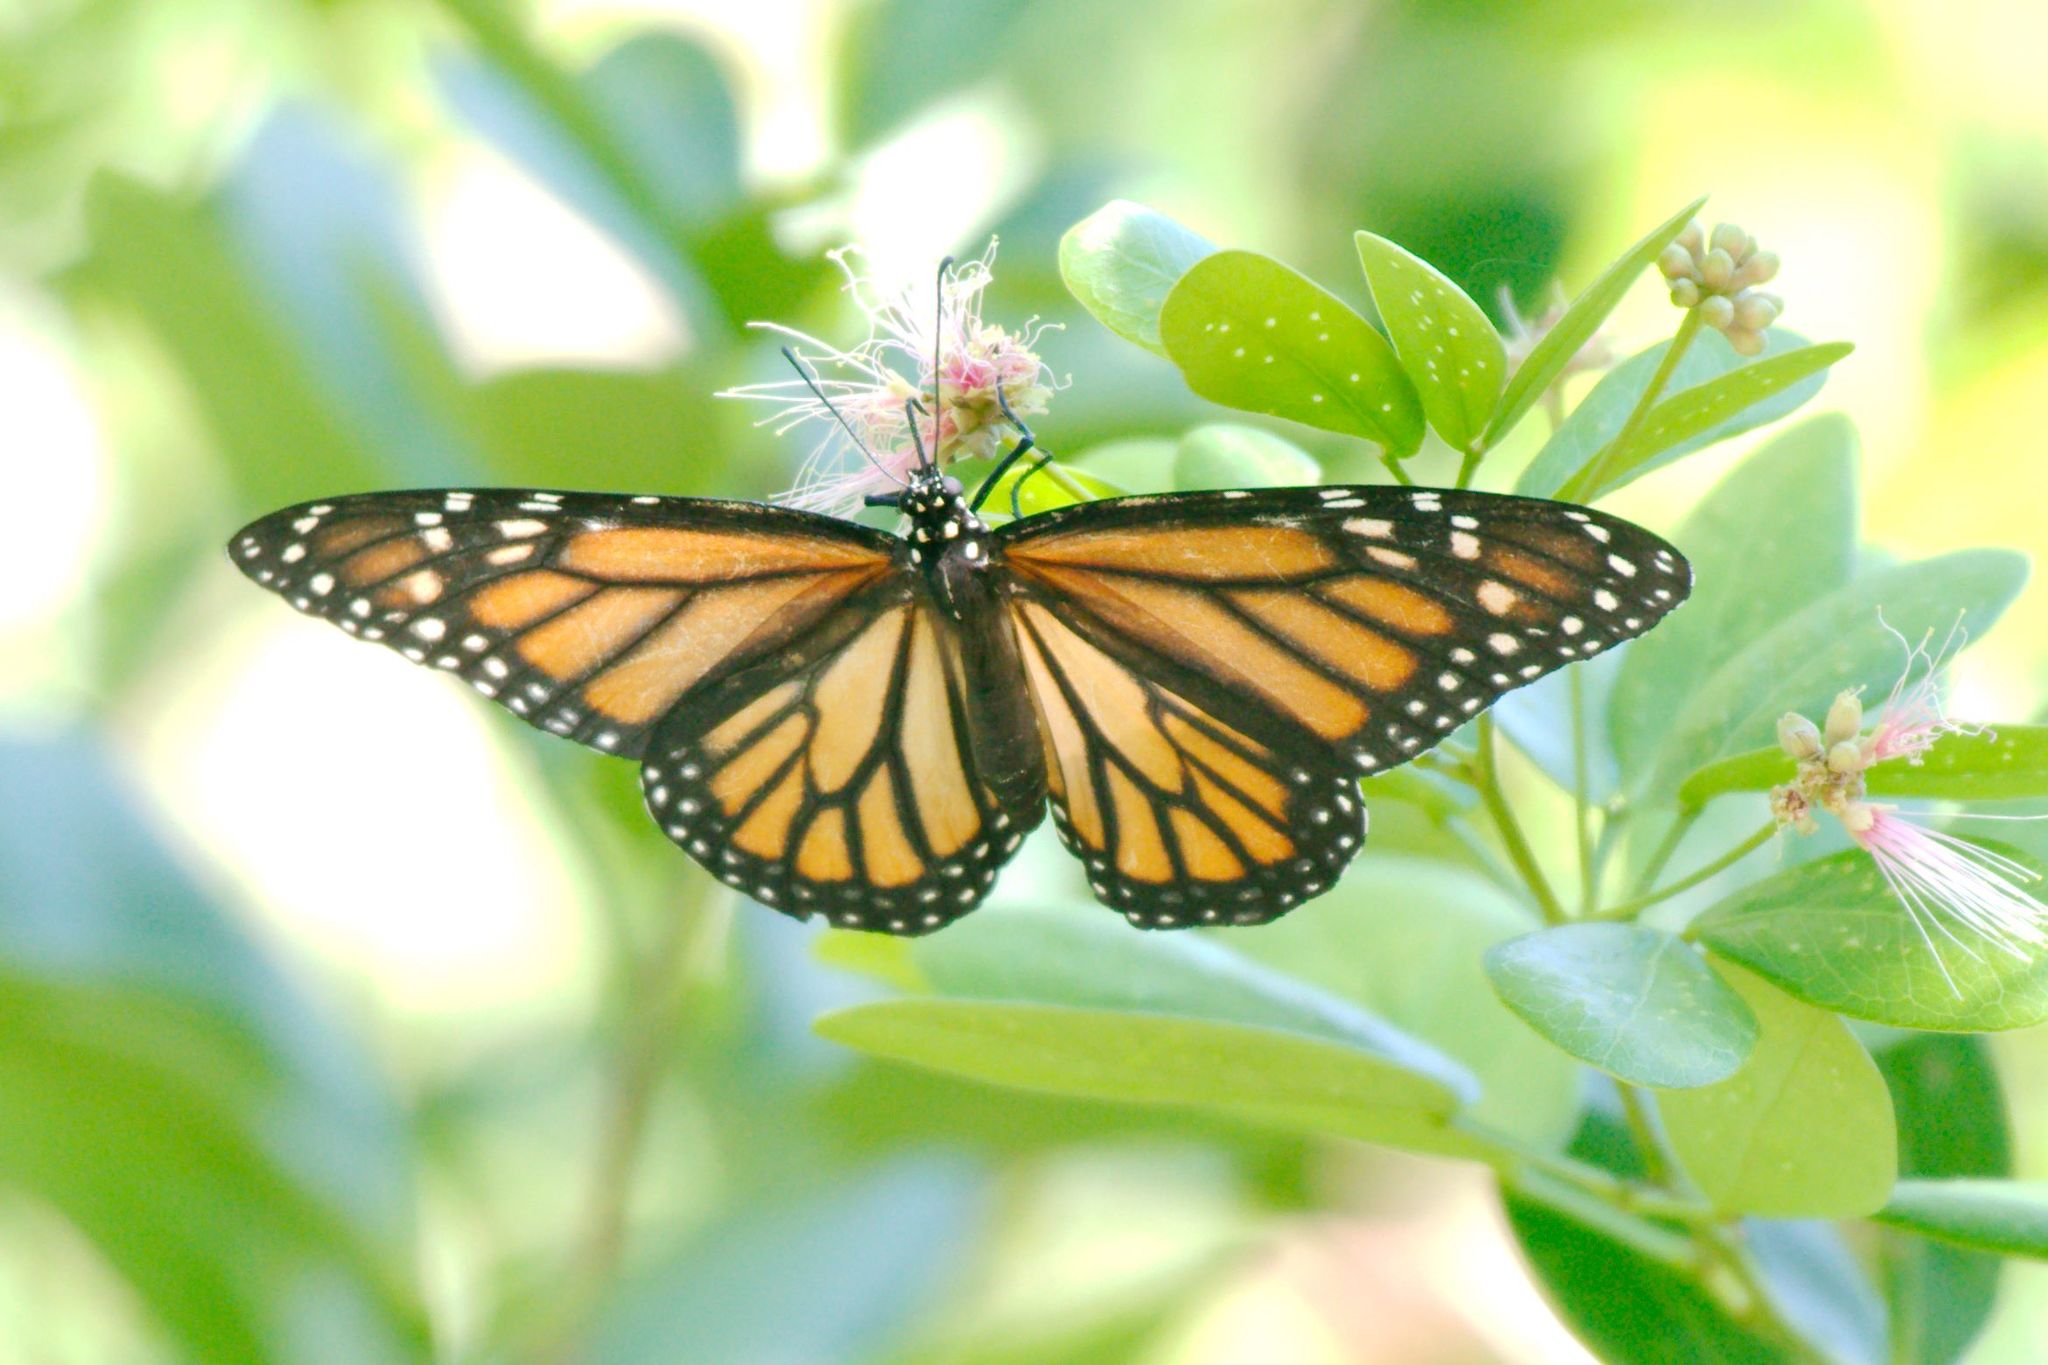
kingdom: Animalia
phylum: Arthropoda
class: Insecta
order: Lepidoptera
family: Nymphalidae
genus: Danaus
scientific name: Danaus plexippus
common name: Monarch
